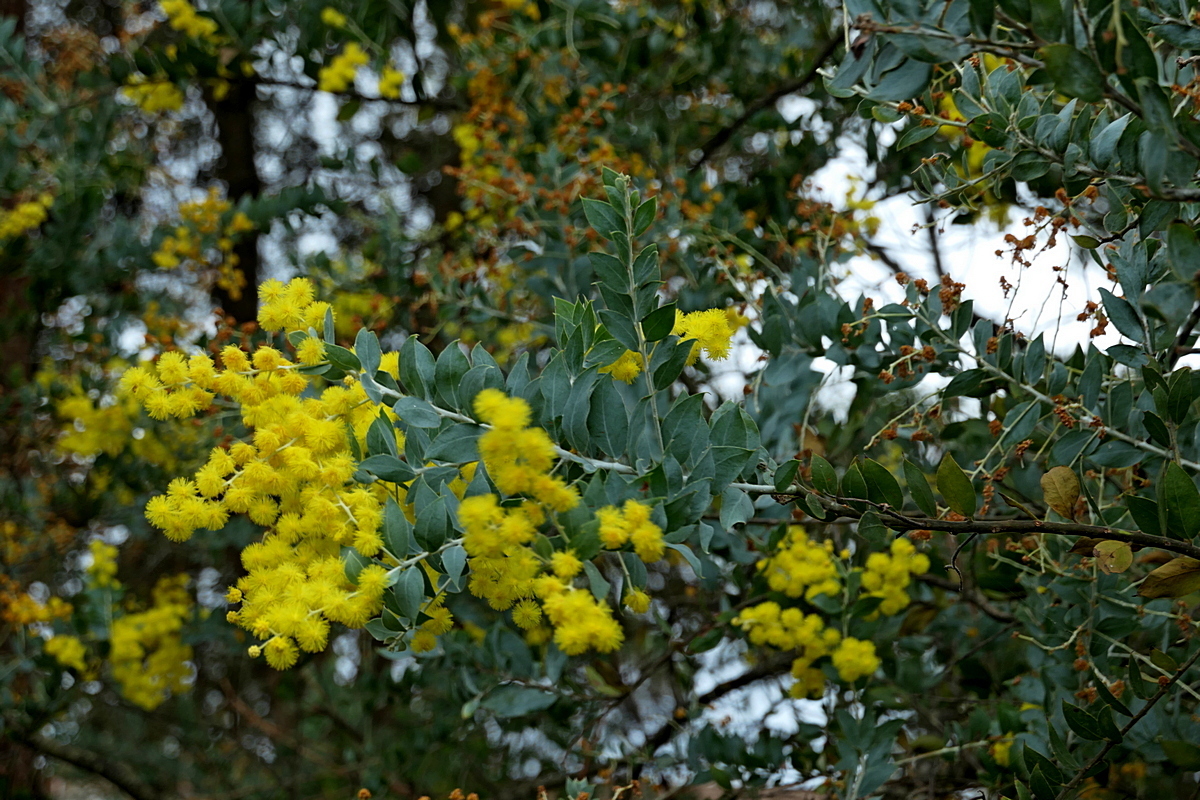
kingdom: Plantae
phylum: Tracheophyta
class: Magnoliopsida
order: Fabales
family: Fabaceae
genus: Acacia
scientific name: Acacia podalyriifolia
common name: Pearl wattle
